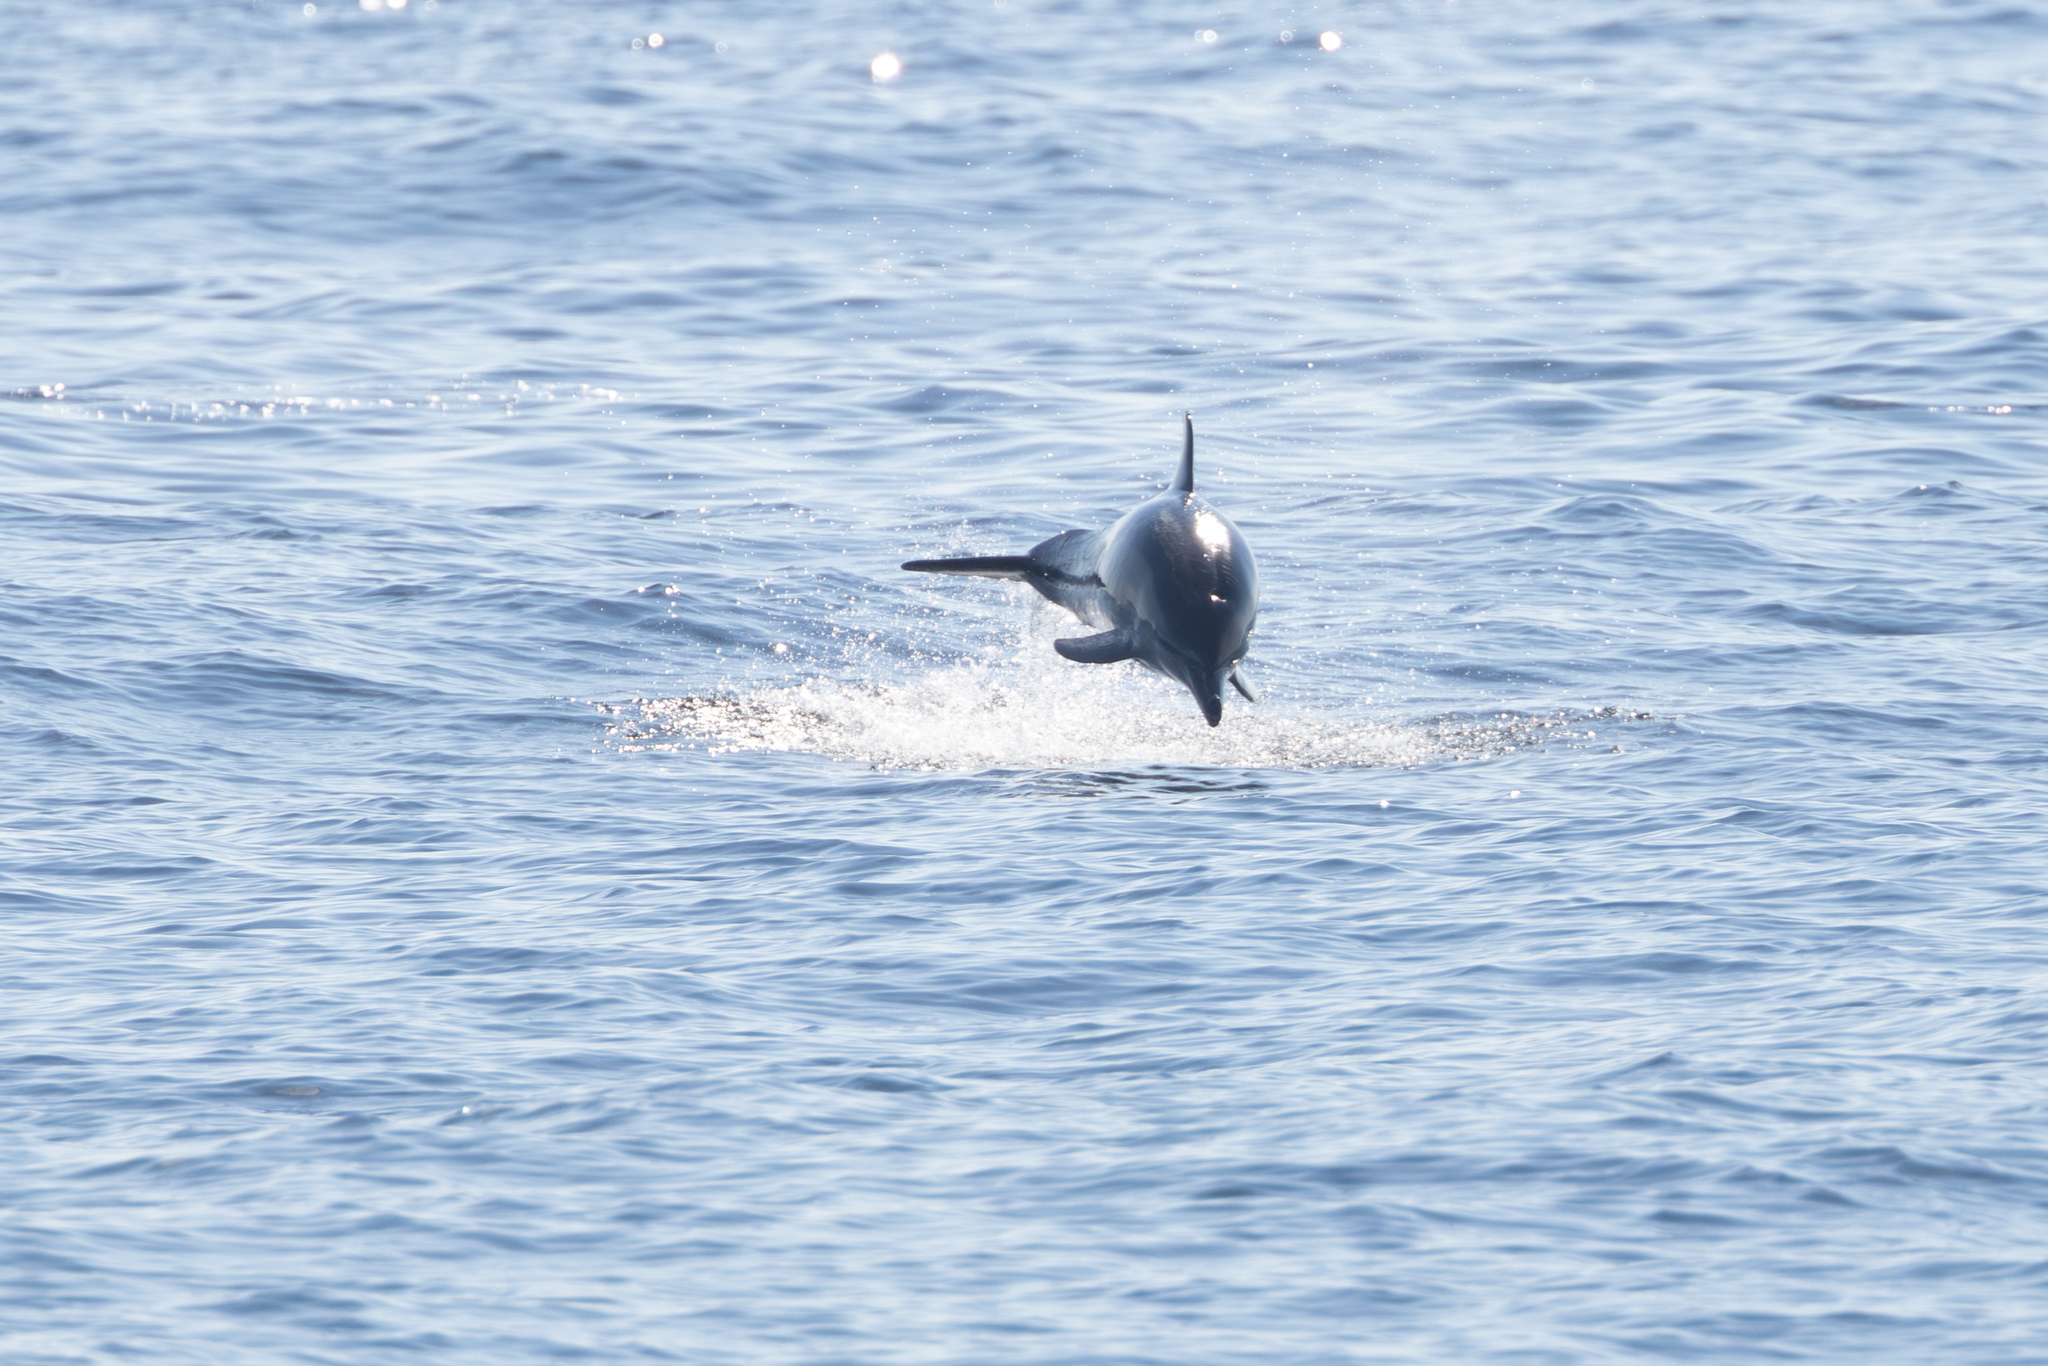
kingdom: Animalia
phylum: Chordata
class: Mammalia
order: Cetacea
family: Delphinidae
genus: Delphinus
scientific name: Delphinus delphis
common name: Common dolphin
